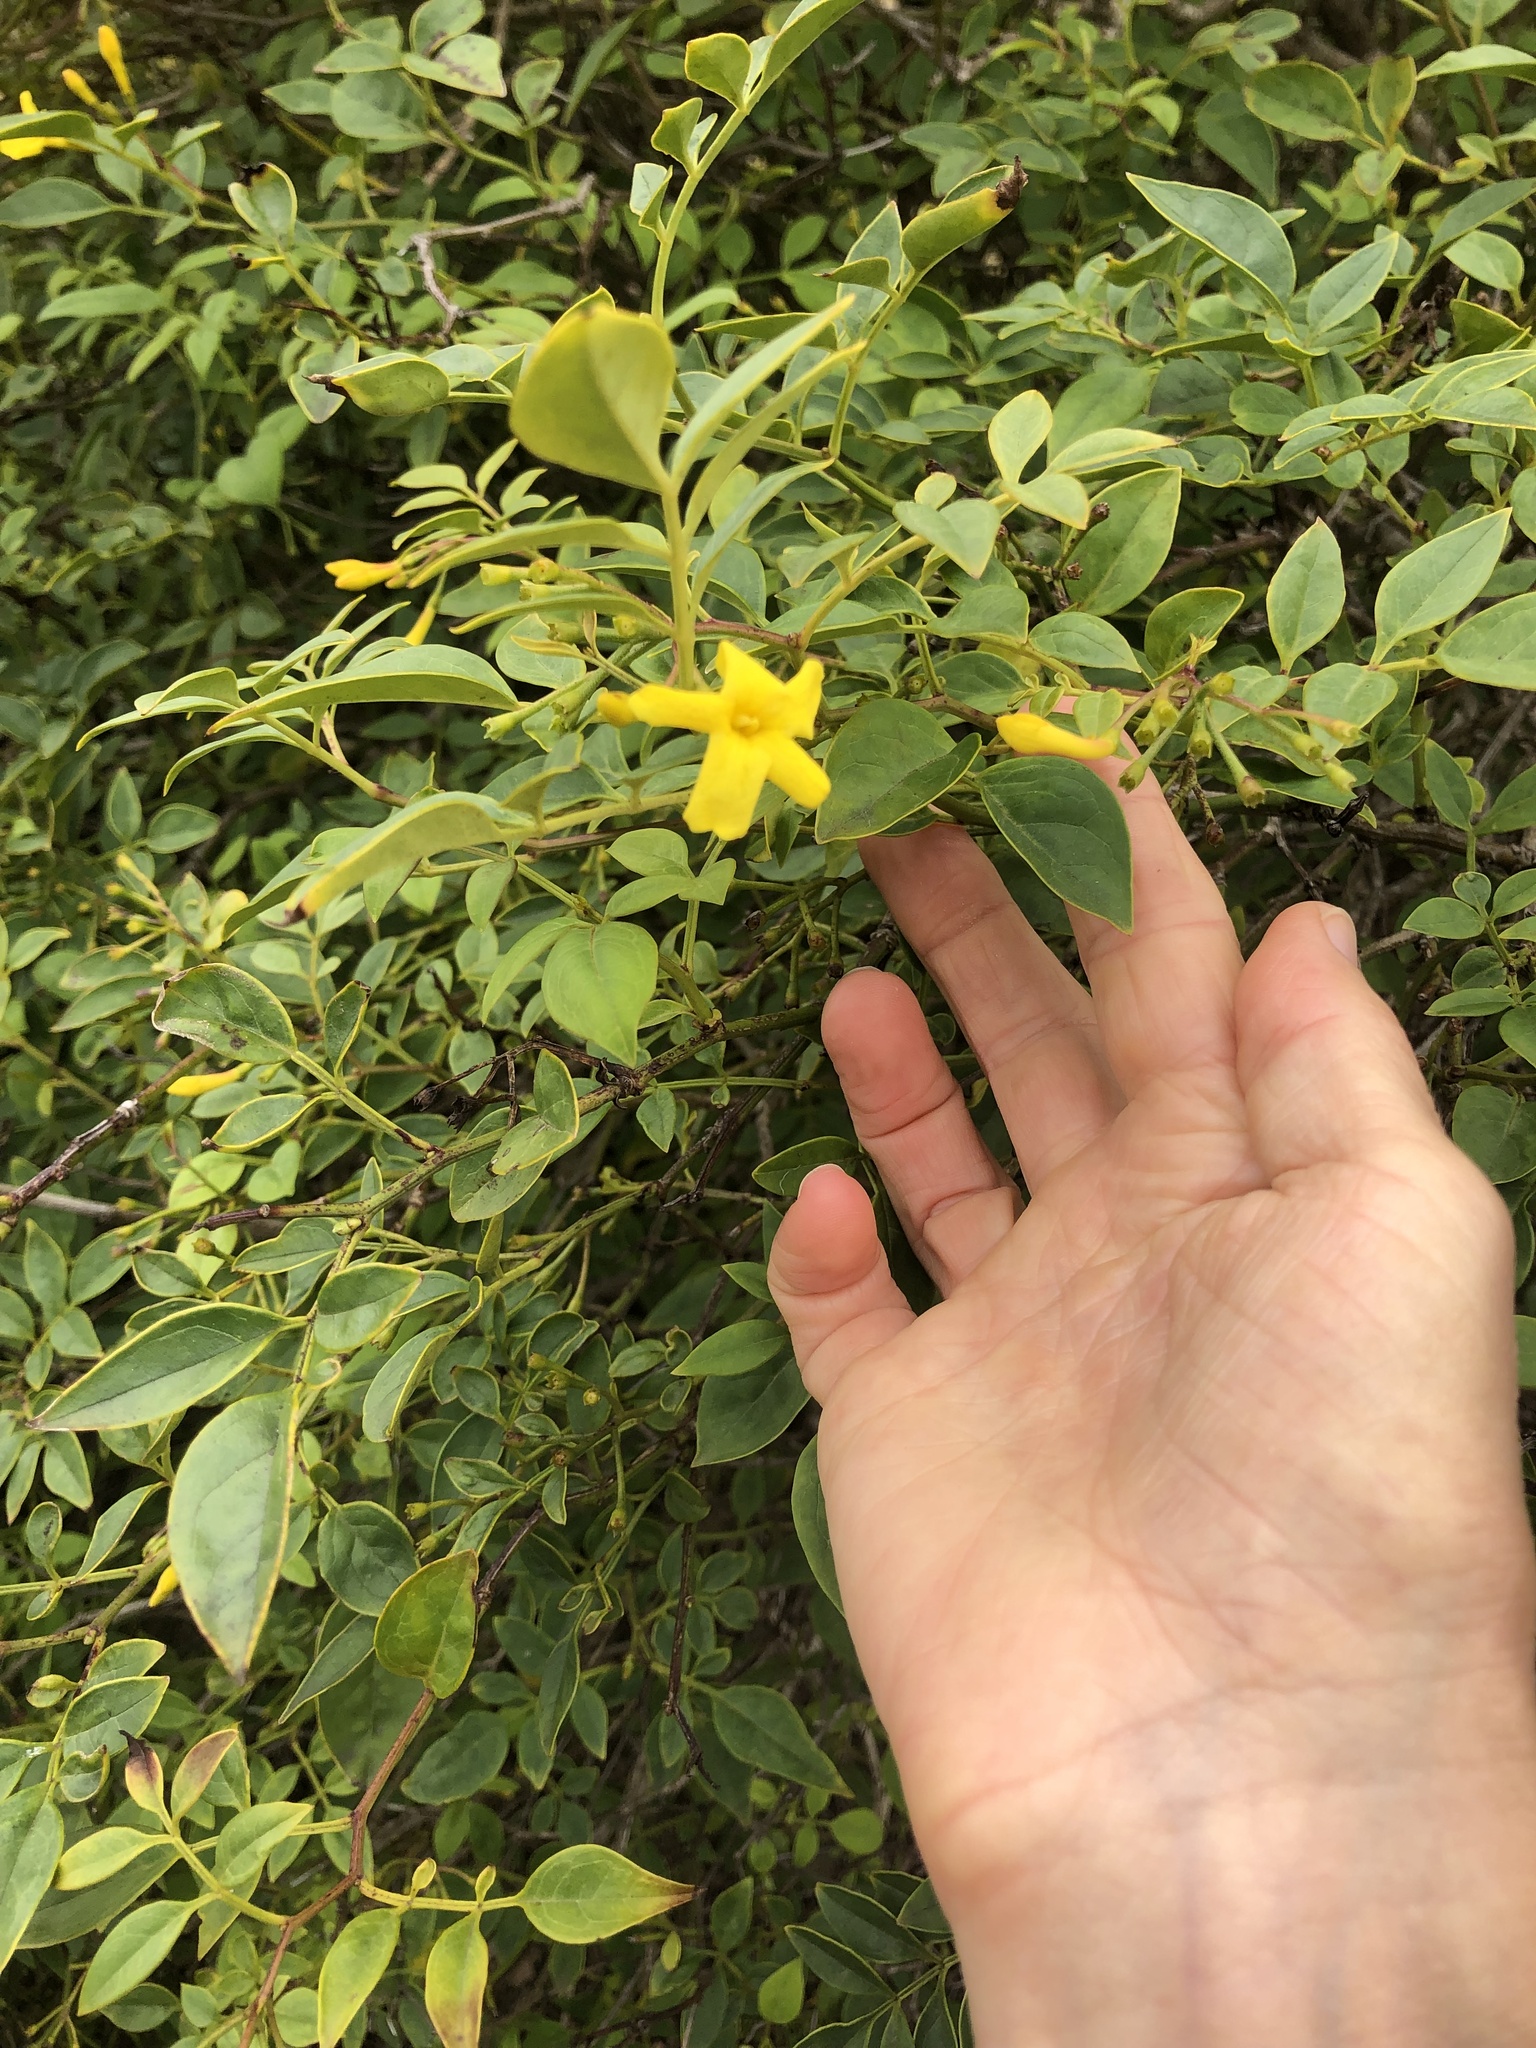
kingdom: Plantae
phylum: Tracheophyta
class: Magnoliopsida
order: Lamiales
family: Oleaceae
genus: Jasminum
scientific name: Jasminum mesnyi
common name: Japanese jasmine
